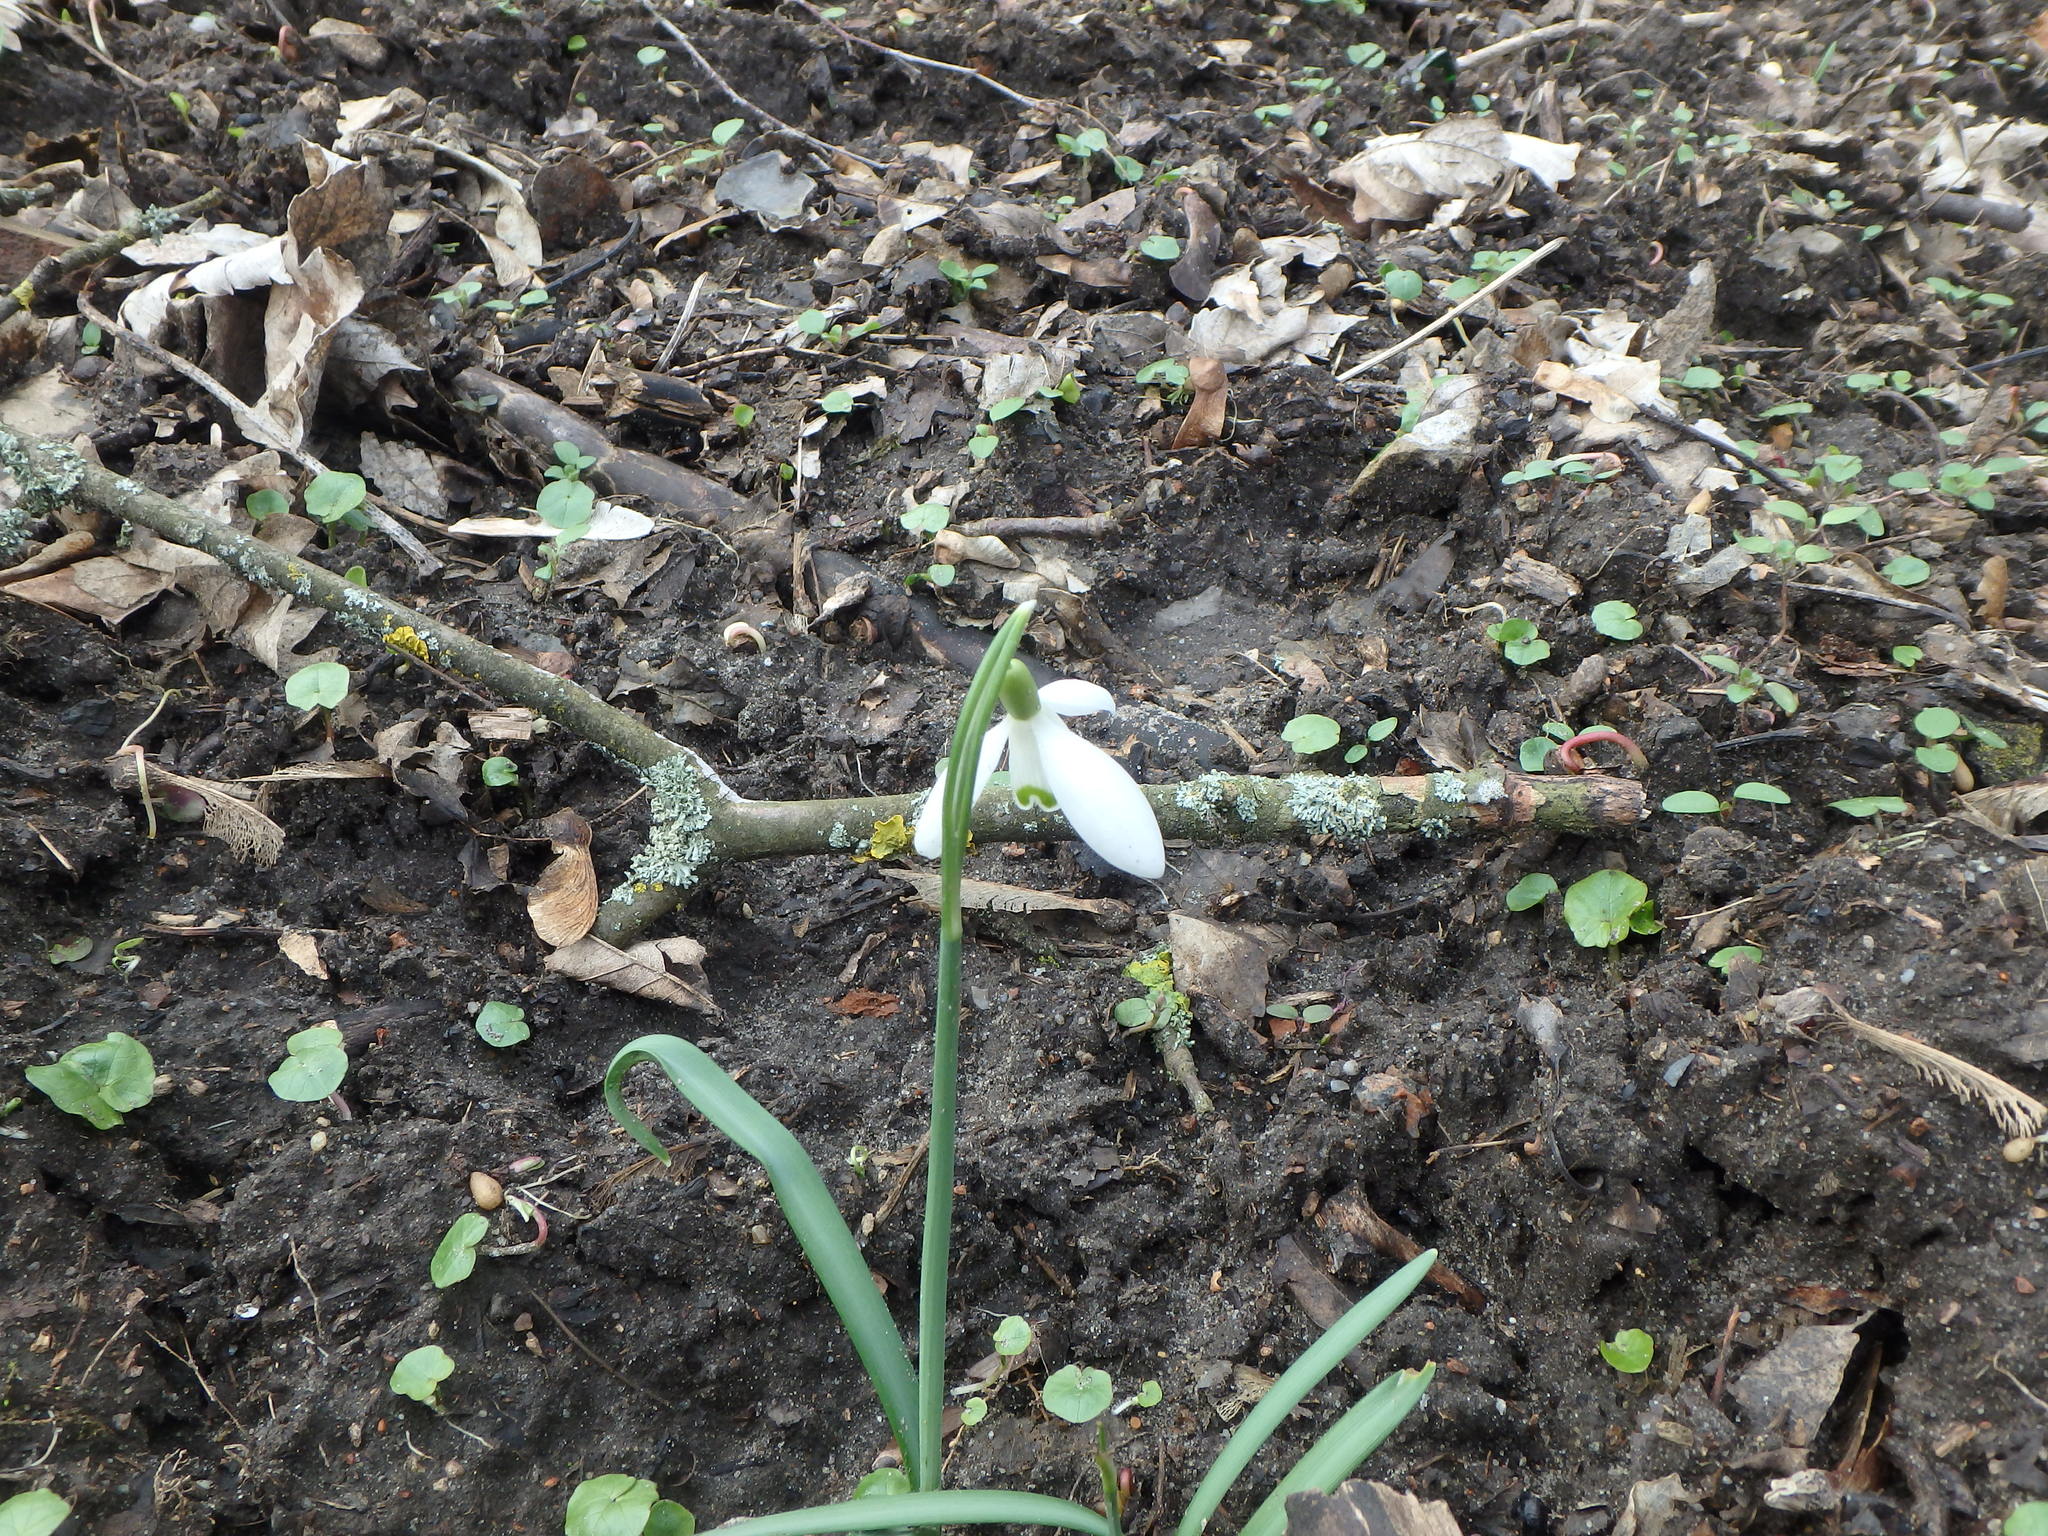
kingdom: Plantae
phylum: Tracheophyta
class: Liliopsida
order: Asparagales
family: Amaryllidaceae
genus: Galanthus
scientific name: Galanthus nivalis
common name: Snowdrop
